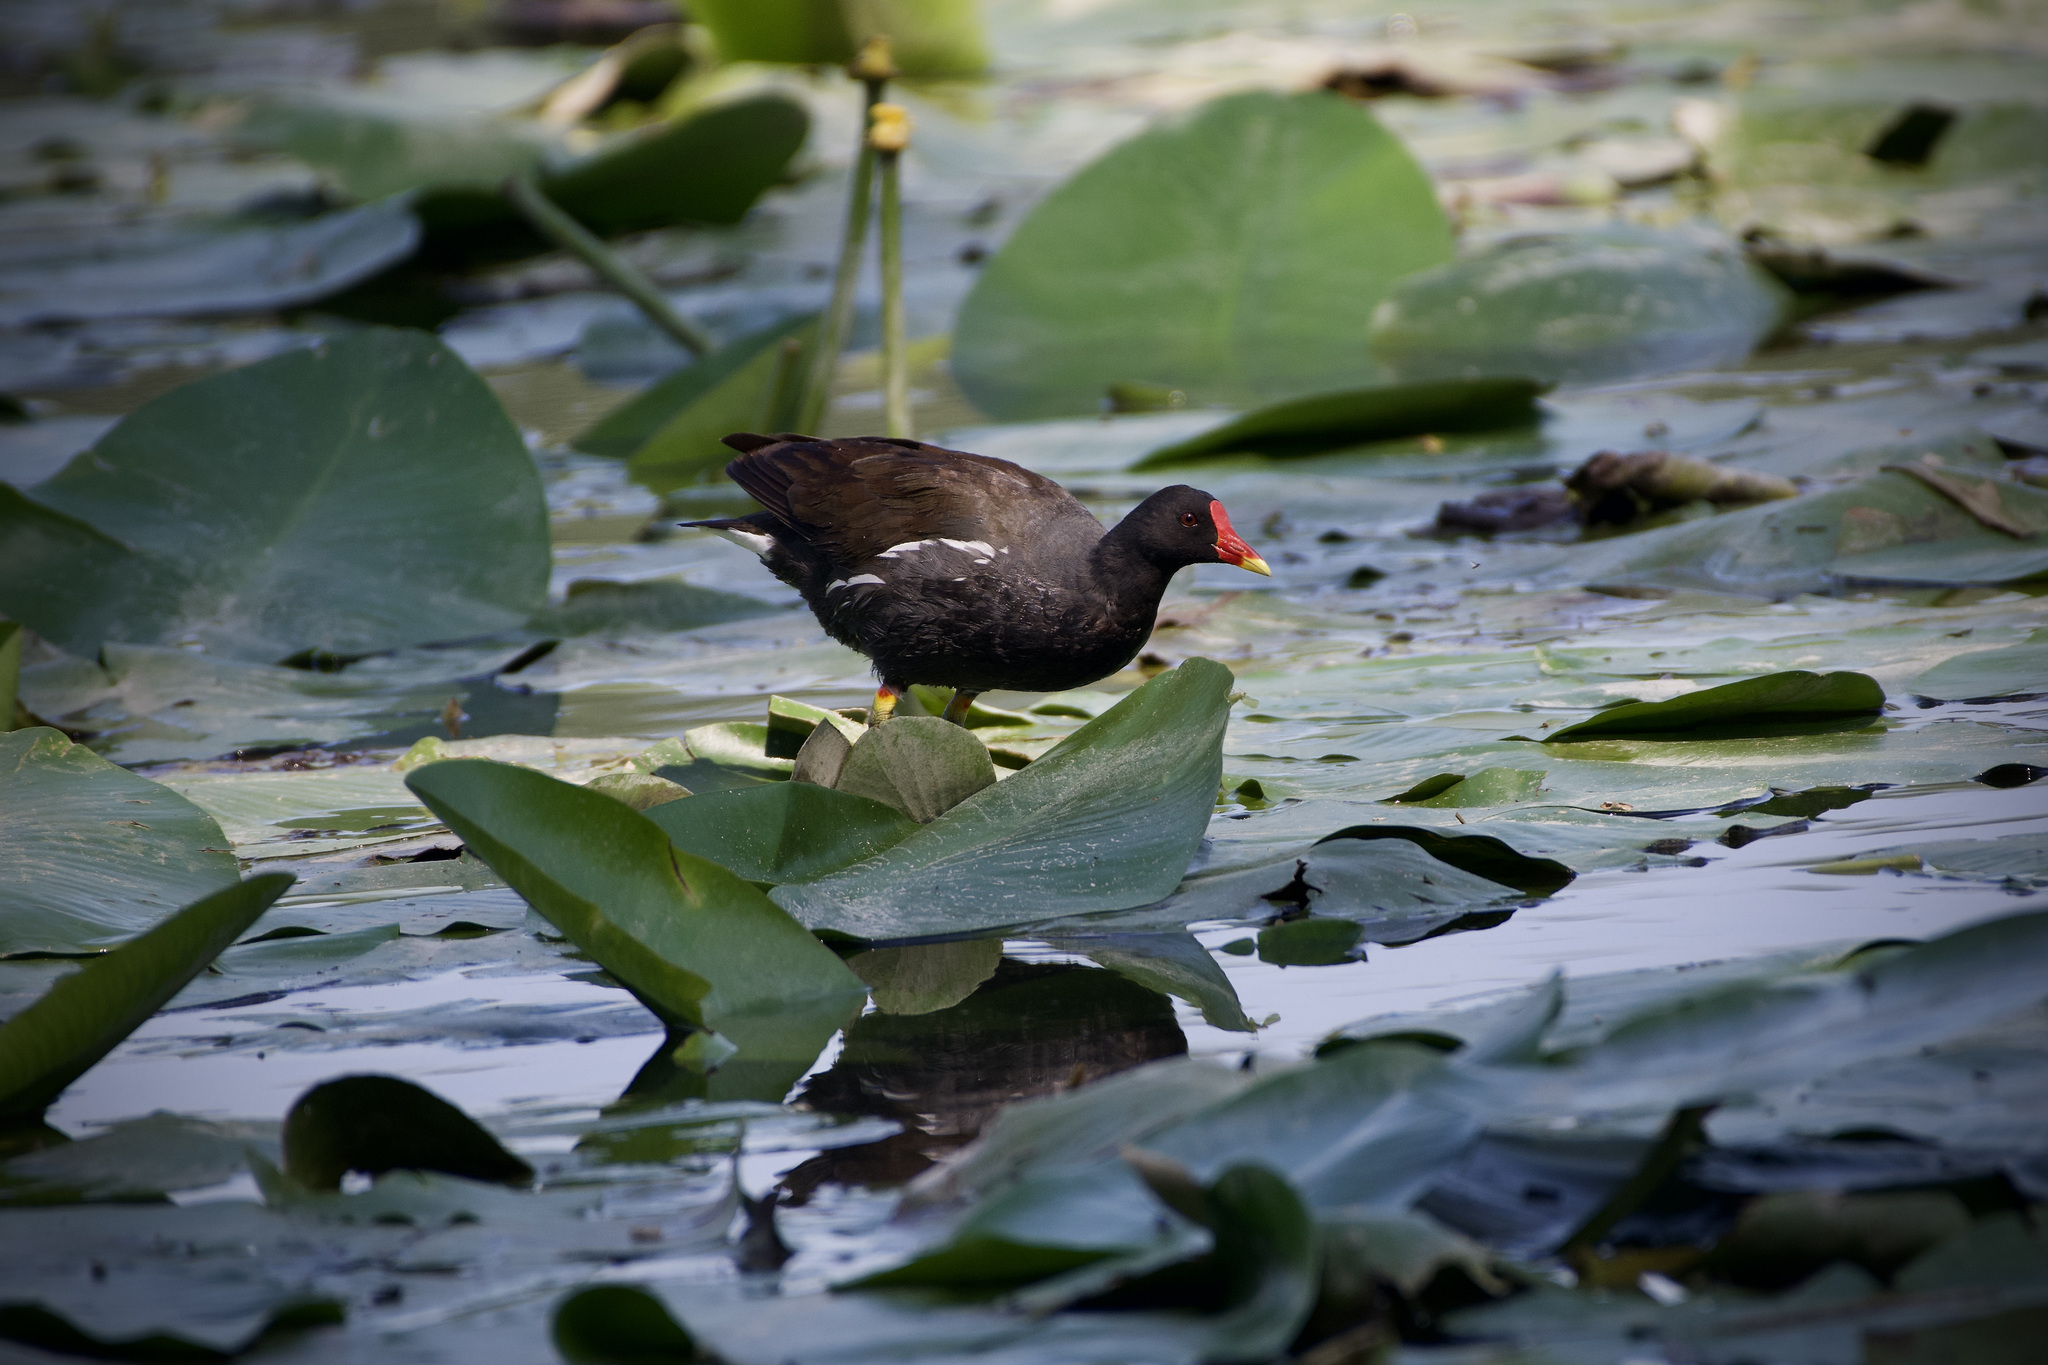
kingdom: Animalia
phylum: Chordata
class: Aves
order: Gruiformes
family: Rallidae
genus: Gallinula
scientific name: Gallinula chloropus
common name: Common moorhen
